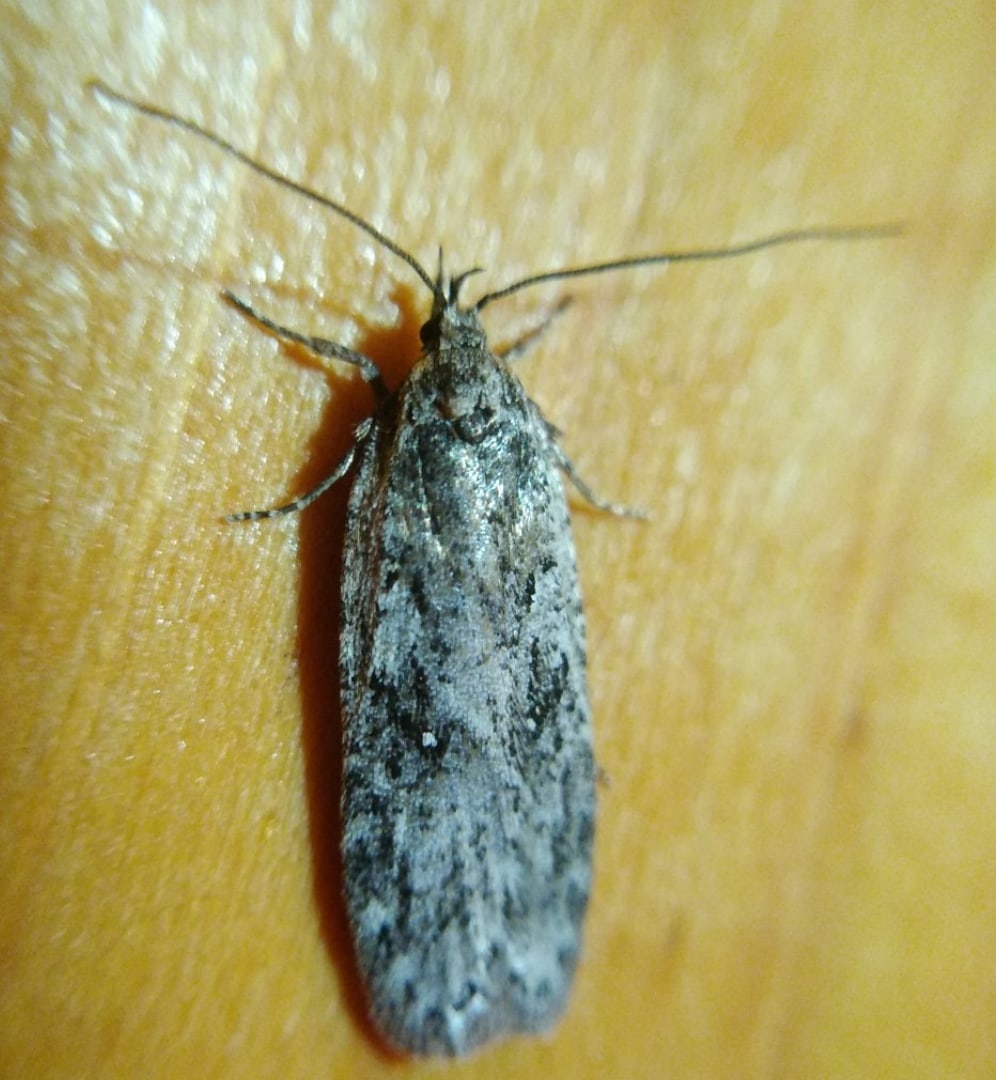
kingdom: Animalia
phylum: Arthropoda
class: Insecta
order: Lepidoptera
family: Depressariidae
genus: Exaeretia
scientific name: Exaeretia ciniflonella
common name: Scotch flat-body
